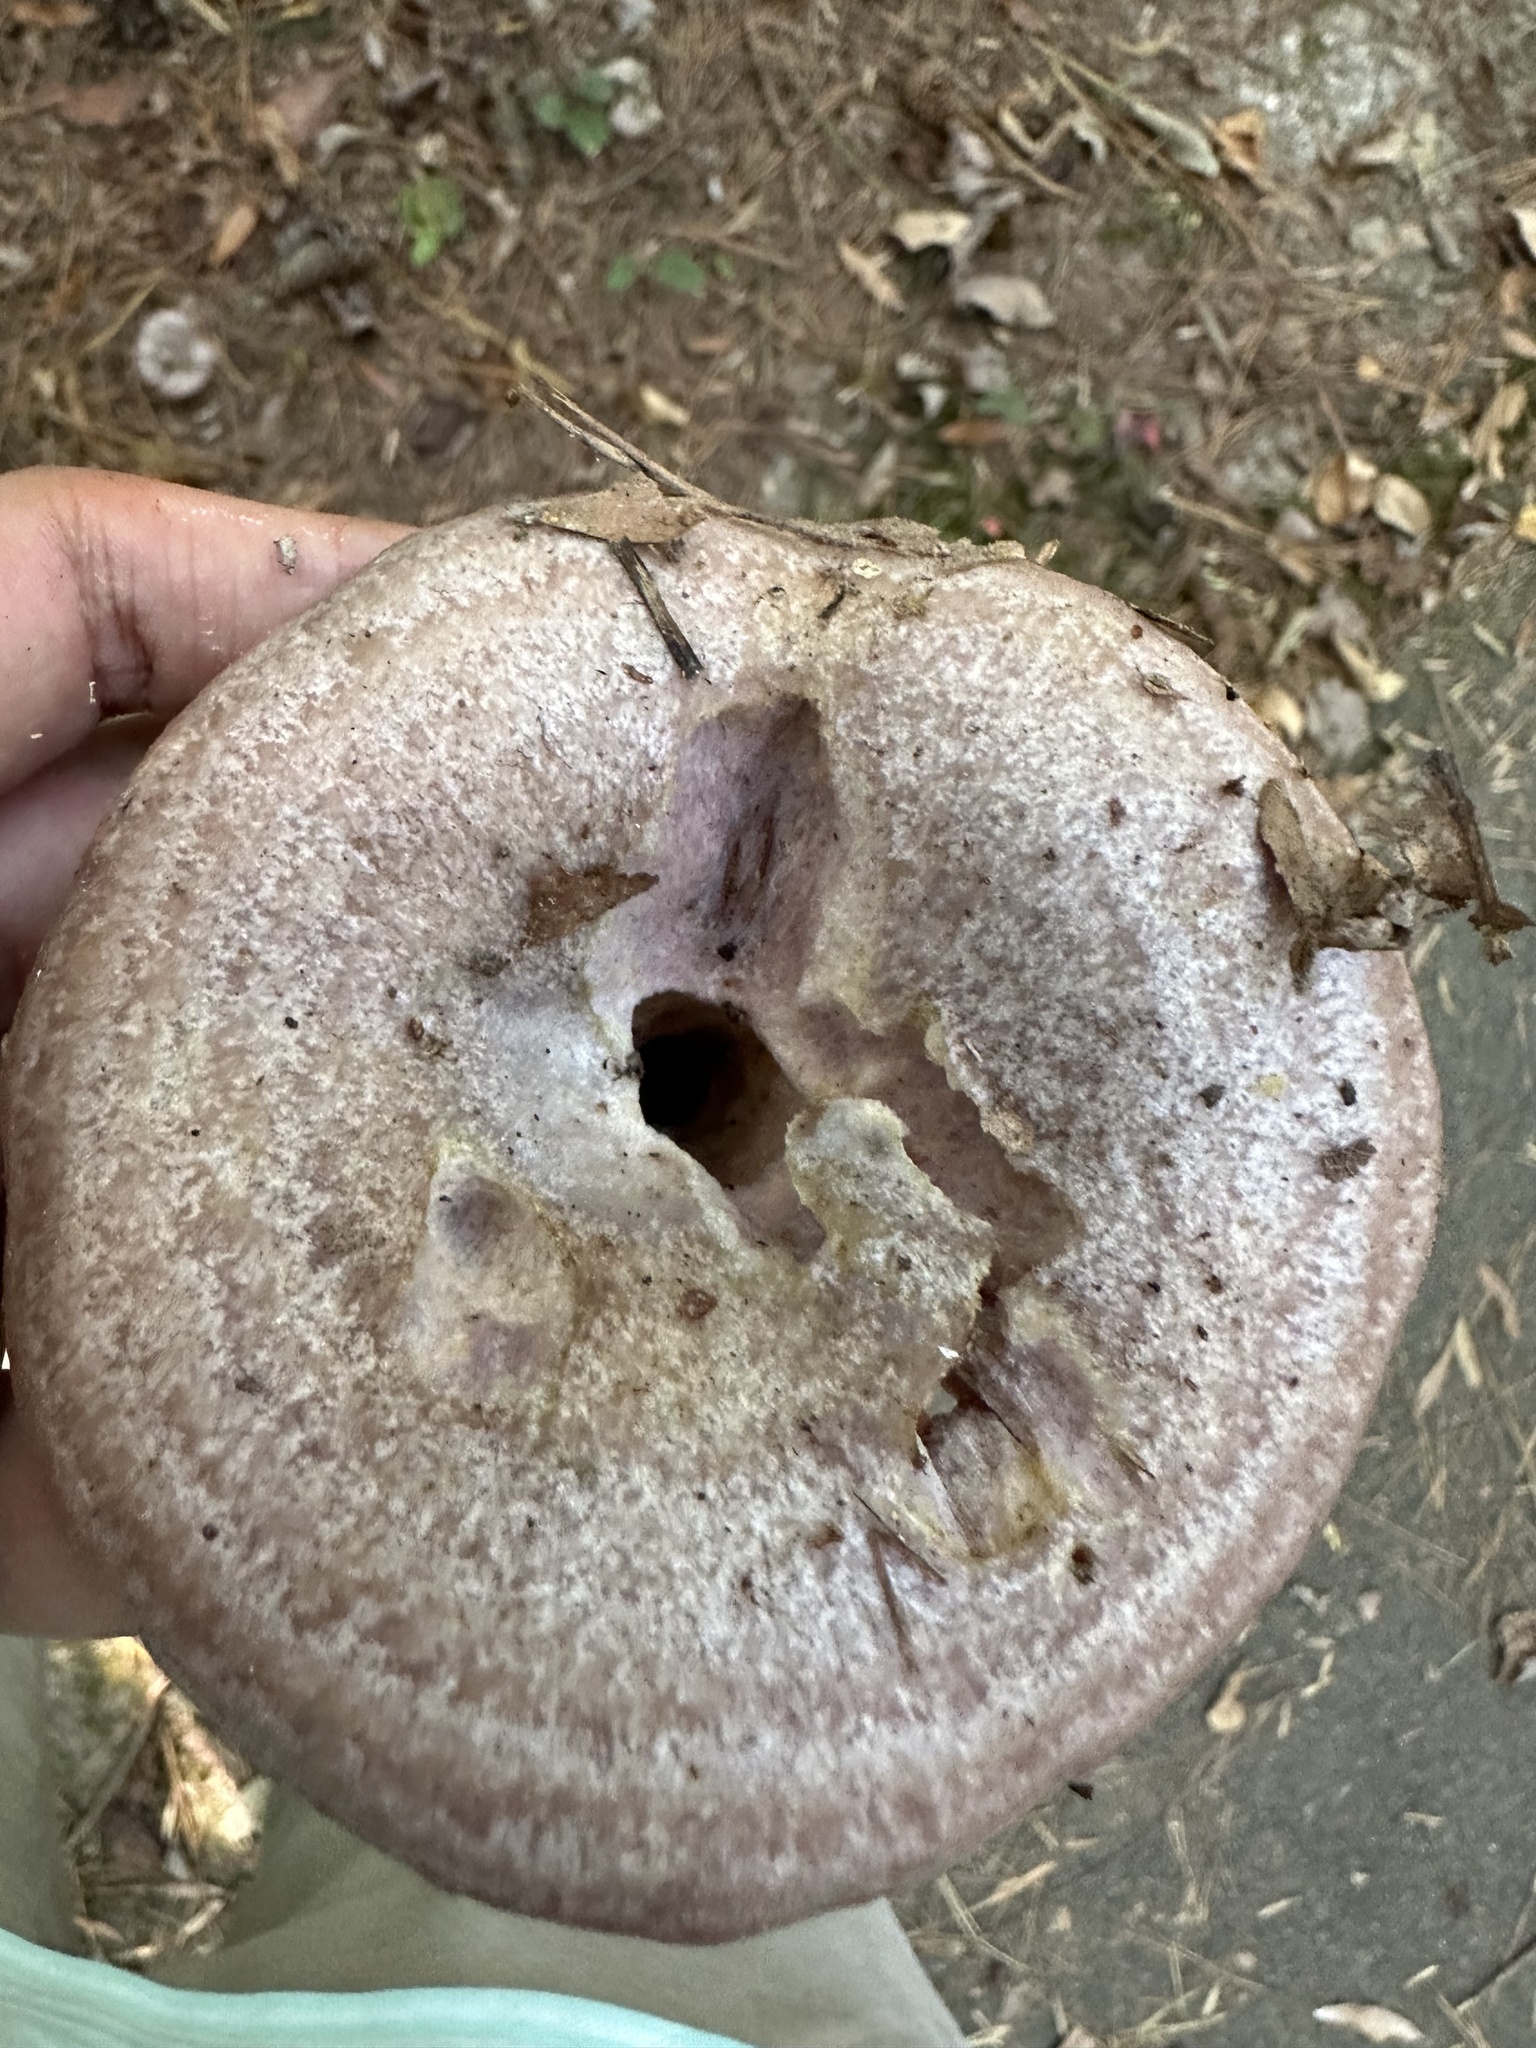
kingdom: Fungi
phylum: Basidiomycota
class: Agaricomycetes
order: Russulales
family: Russulaceae
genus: Lactarius
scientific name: Lactarius subpurpureus
